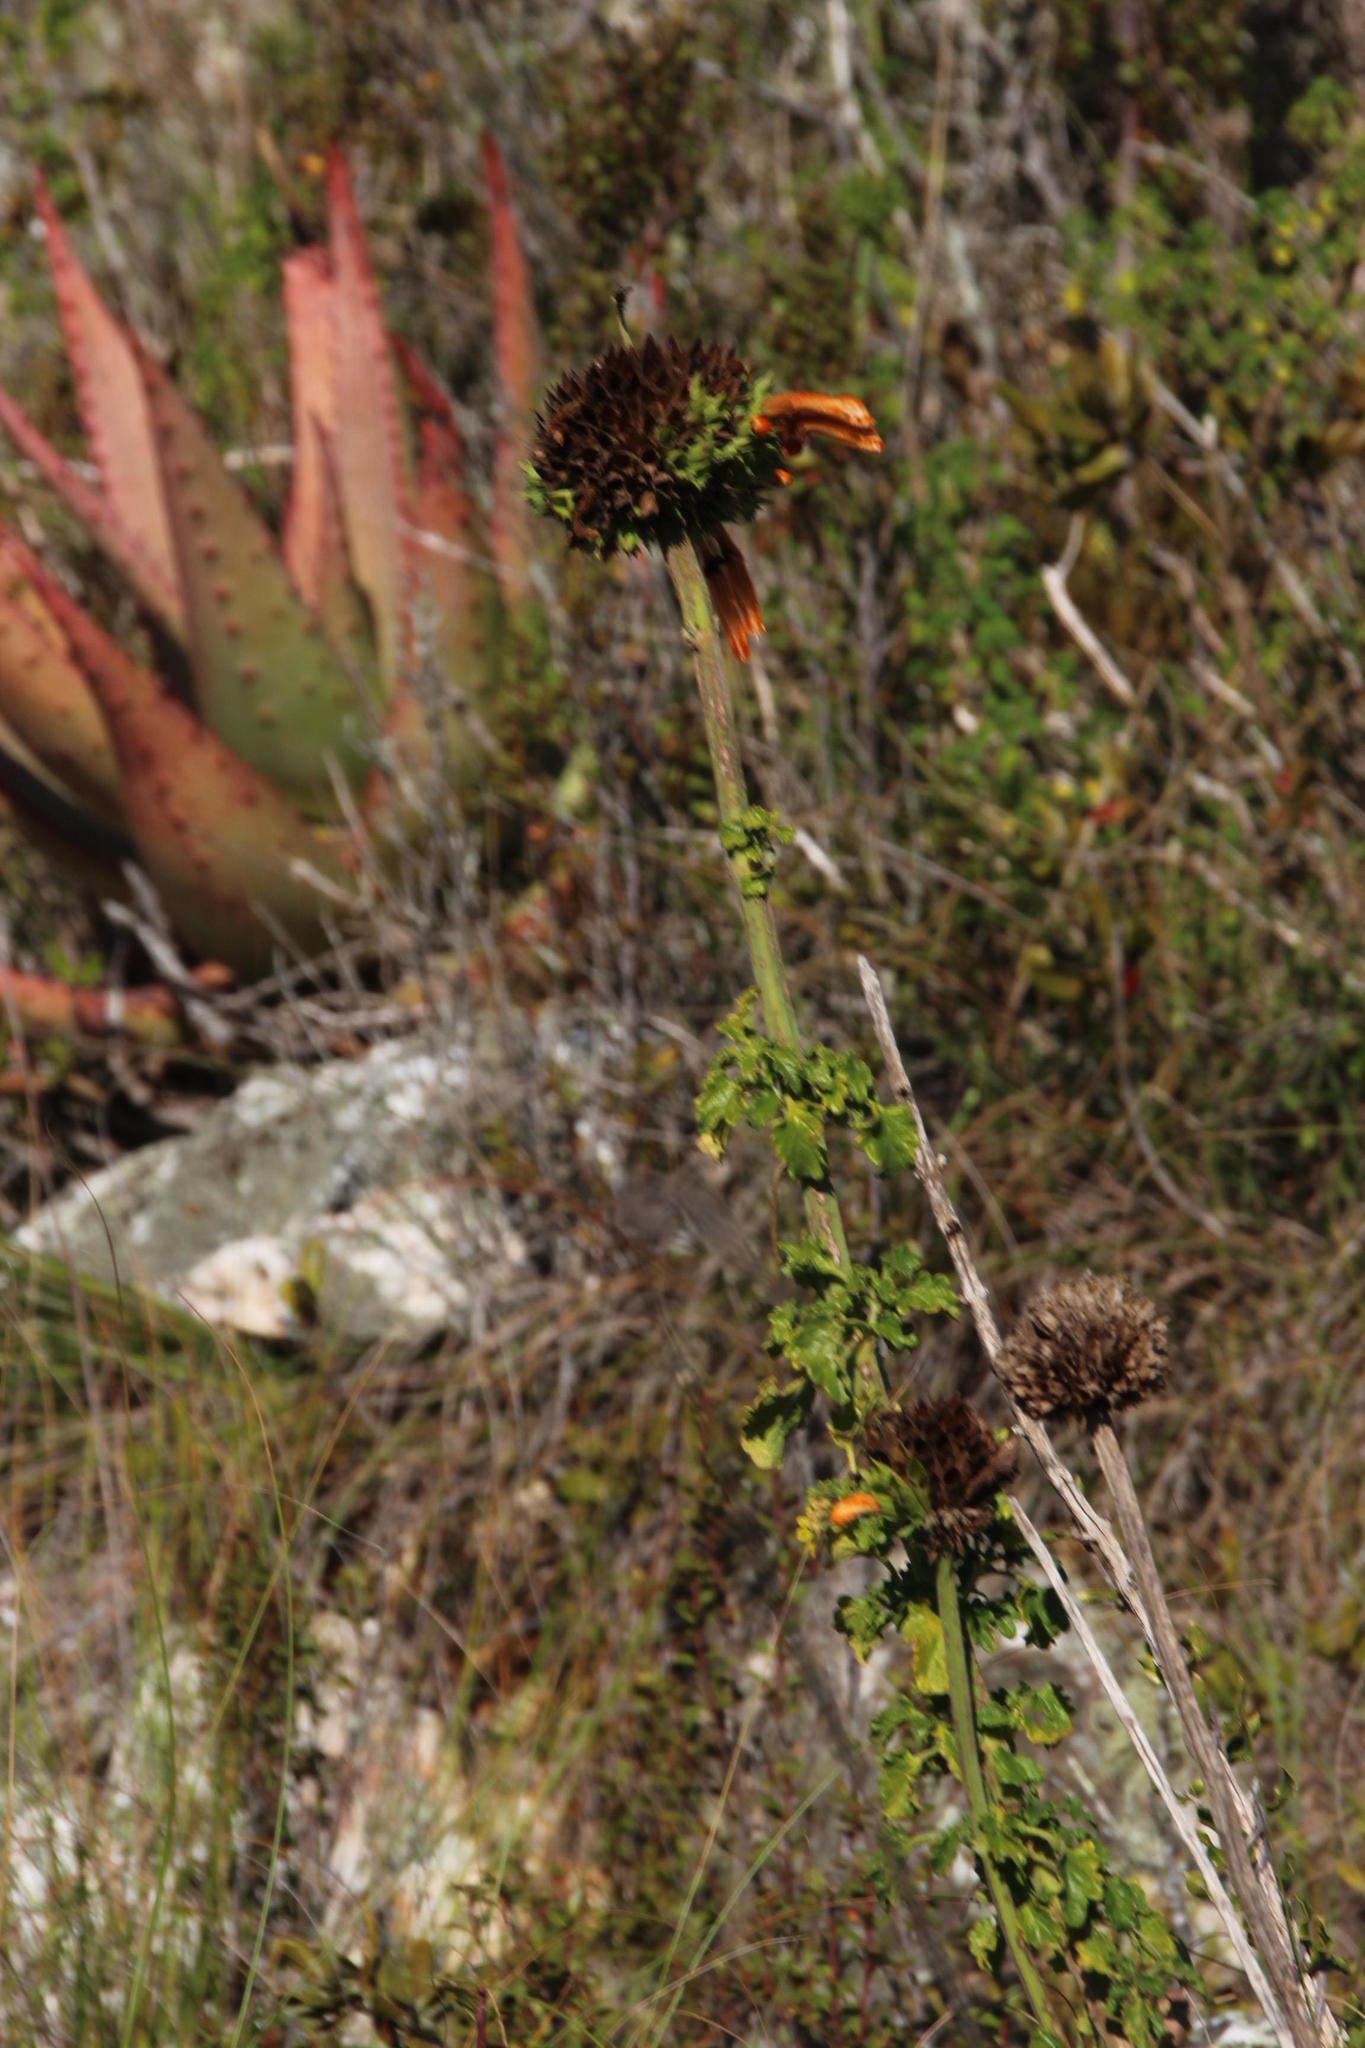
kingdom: Plantae
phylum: Tracheophyta
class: Magnoliopsida
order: Lamiales
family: Lamiaceae
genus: Leonotis
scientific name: Leonotis ocymifolia
